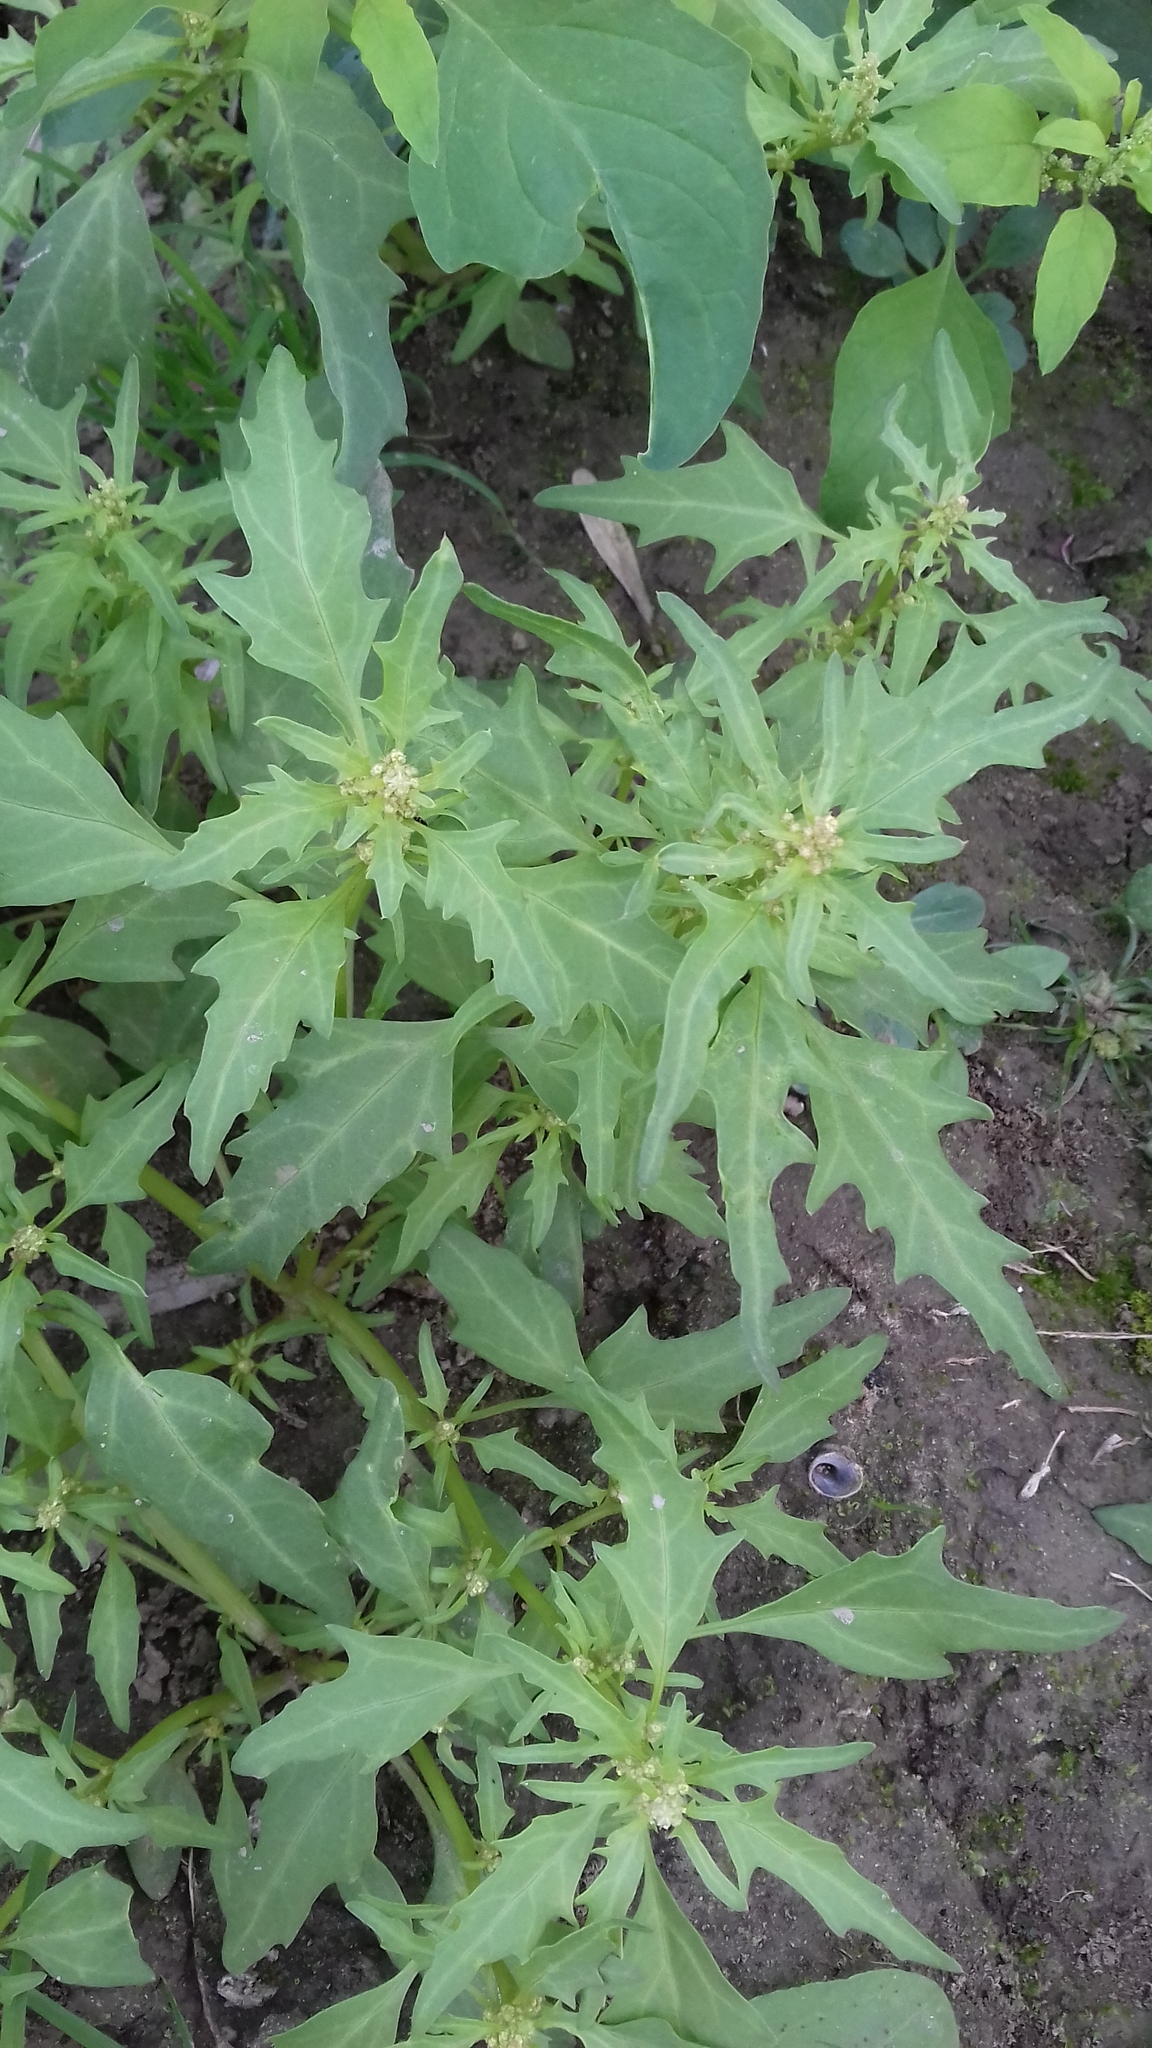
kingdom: Plantae
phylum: Tracheophyta
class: Magnoliopsida
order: Caryophyllales
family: Amaranthaceae
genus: Oxybasis
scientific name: Oxybasis rubra
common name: Red goosefoot
